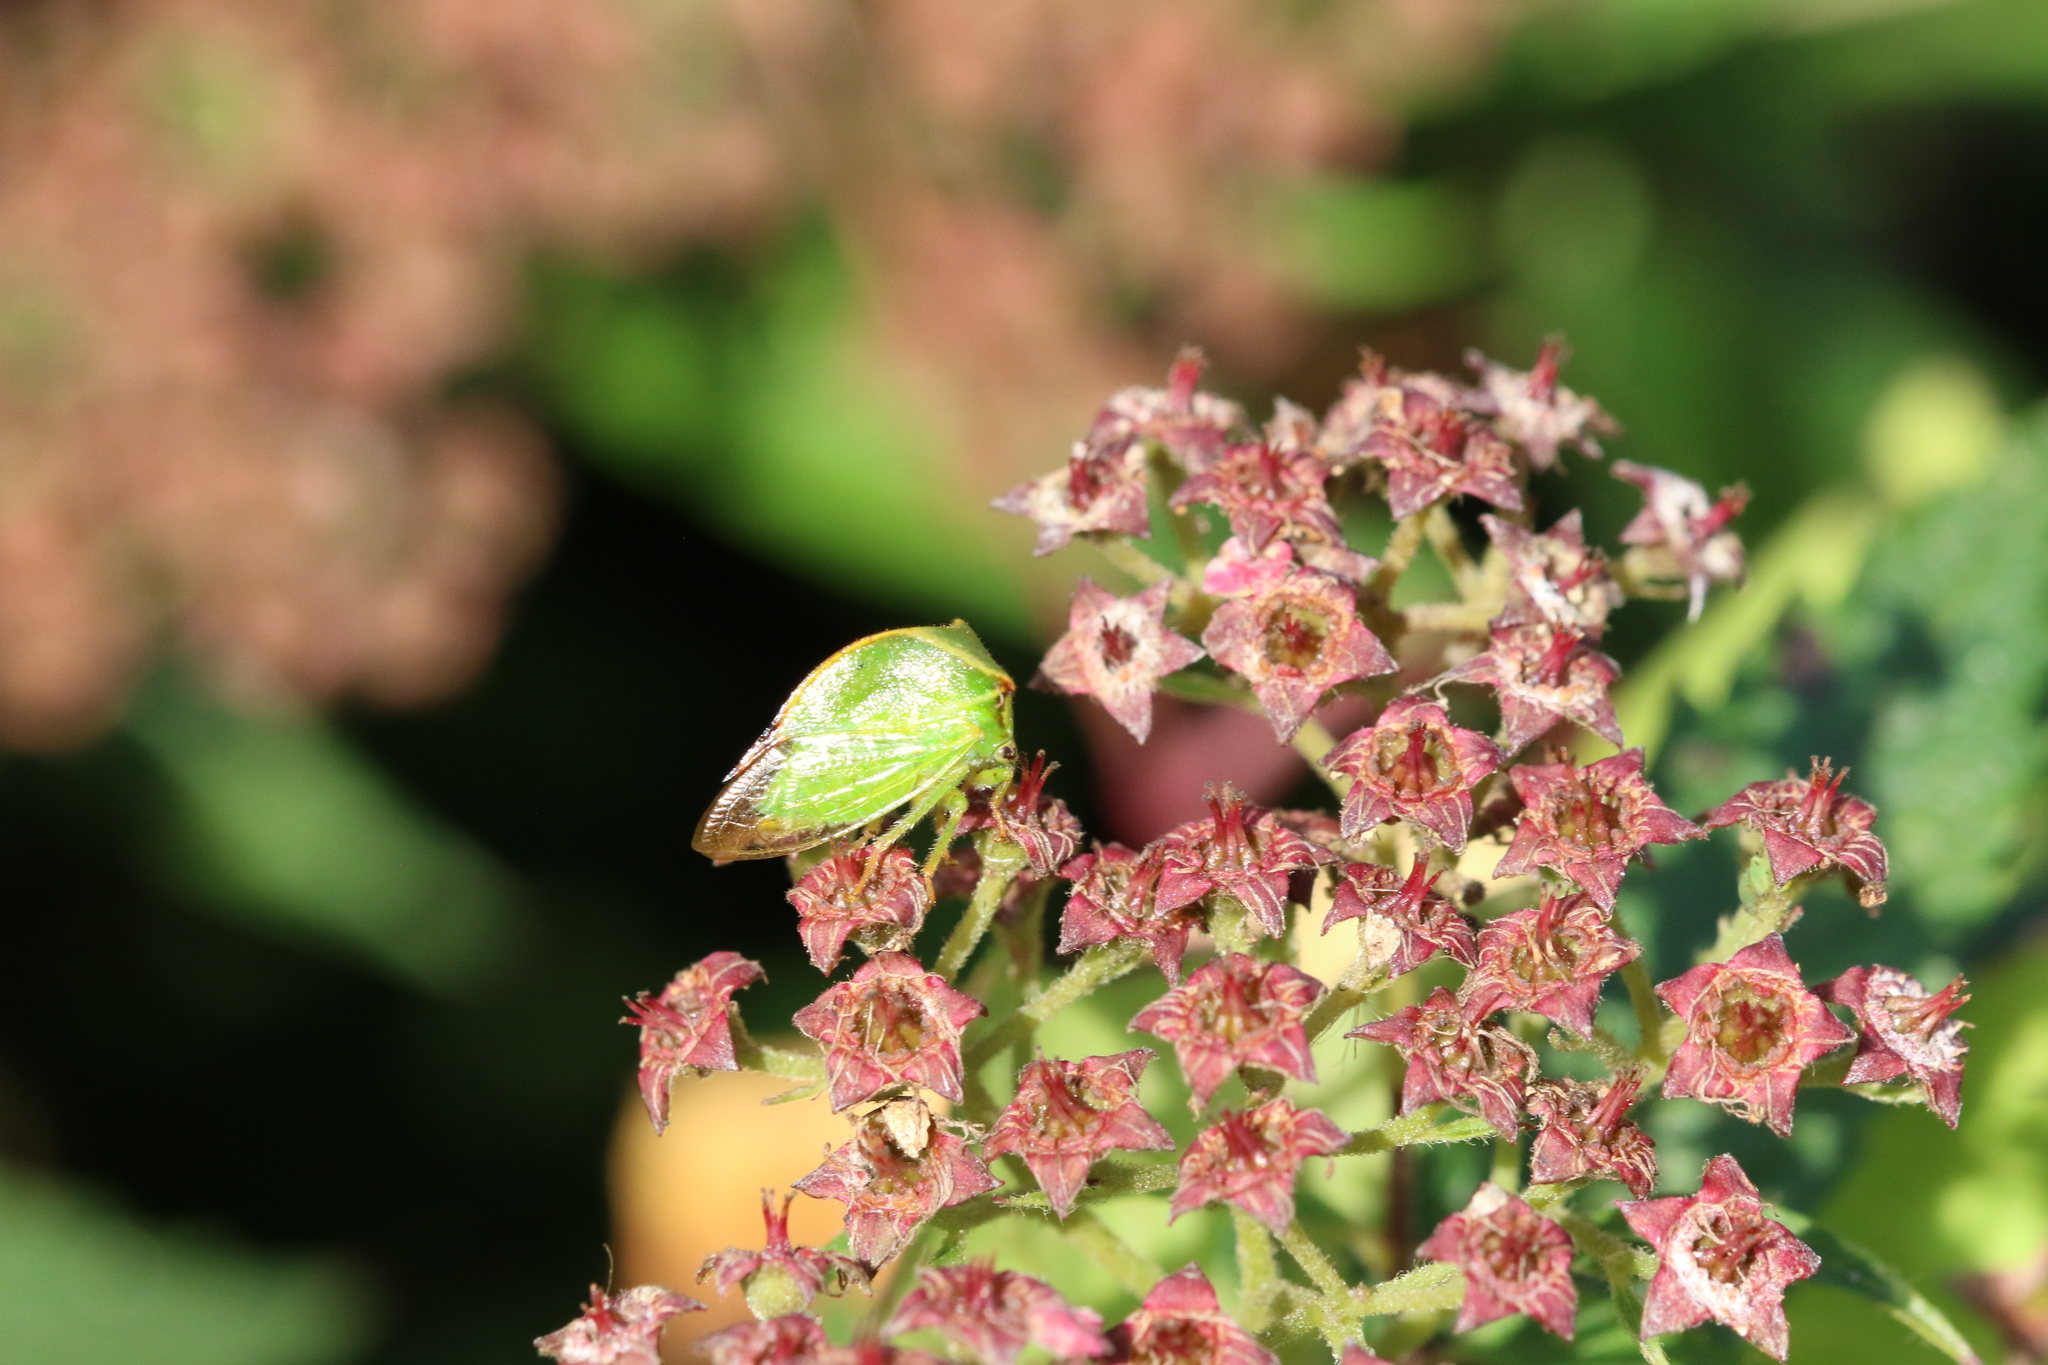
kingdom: Animalia
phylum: Arthropoda
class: Insecta
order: Hemiptera
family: Membracidae
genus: Stictocephala
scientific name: Stictocephala bisonia
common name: American buffalo treehopper
